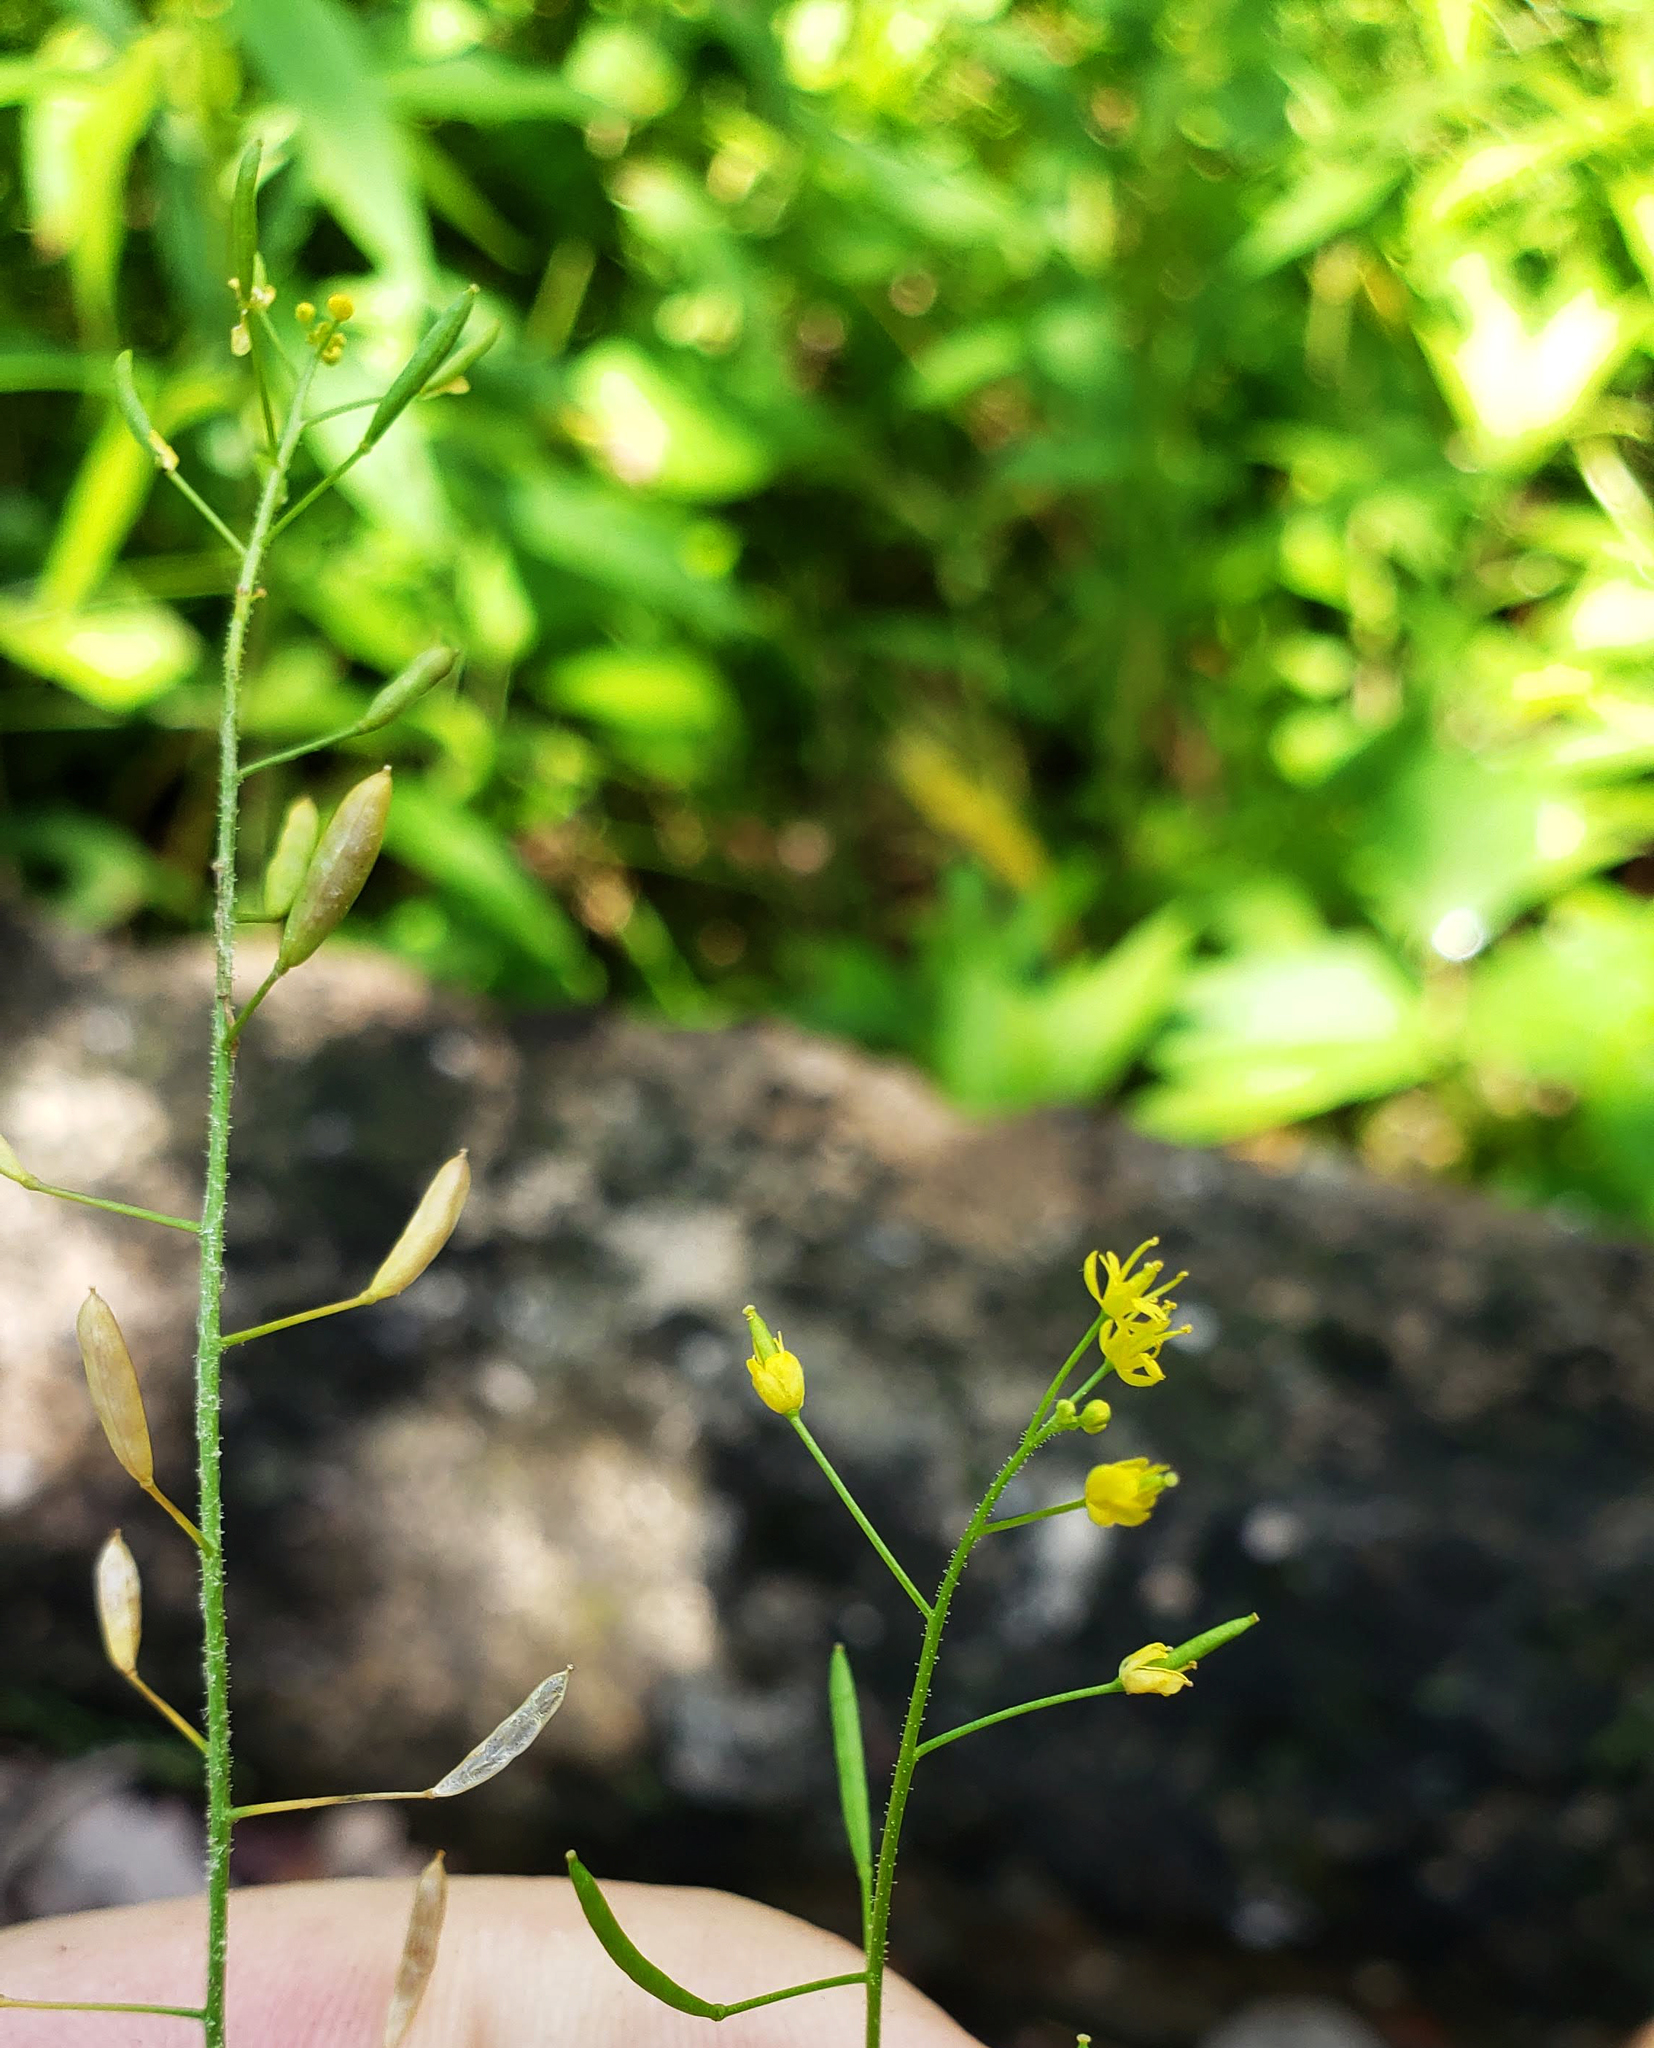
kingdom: Plantae
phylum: Tracheophyta
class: Magnoliopsida
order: Brassicales
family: Brassicaceae
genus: Descurainia
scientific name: Descurainia pinnata
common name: Western tansy mustard
